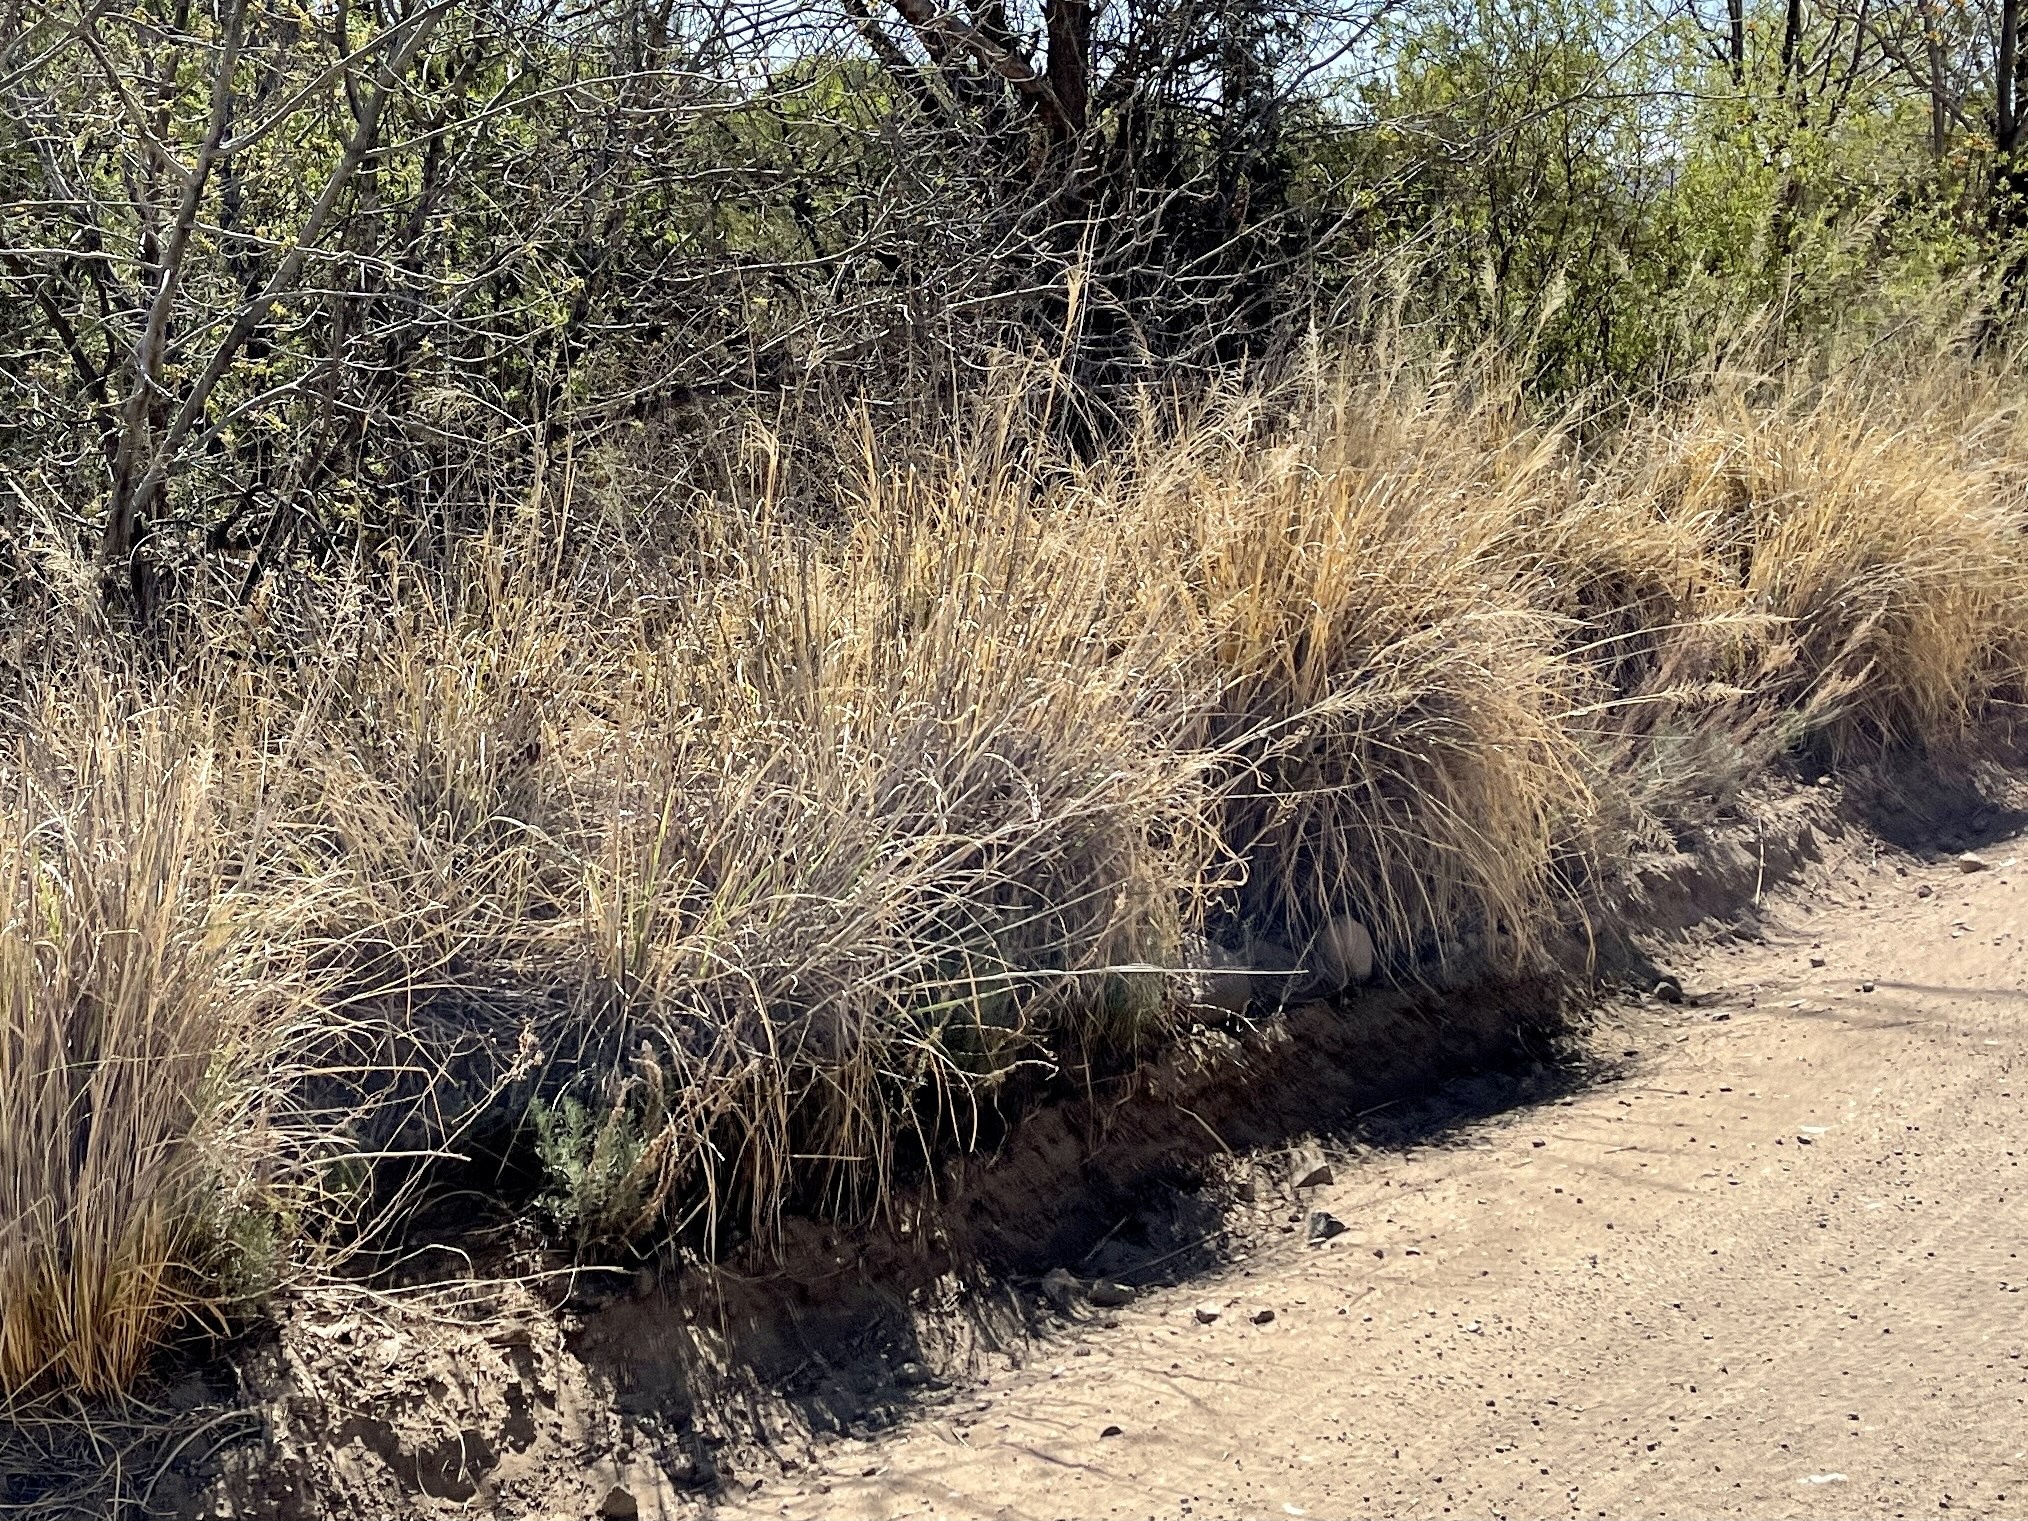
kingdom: Plantae
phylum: Tracheophyta
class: Liliopsida
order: Poales
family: Poaceae
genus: Sporobolus
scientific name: Sporobolus wrightii
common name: Big alkali sacaton
